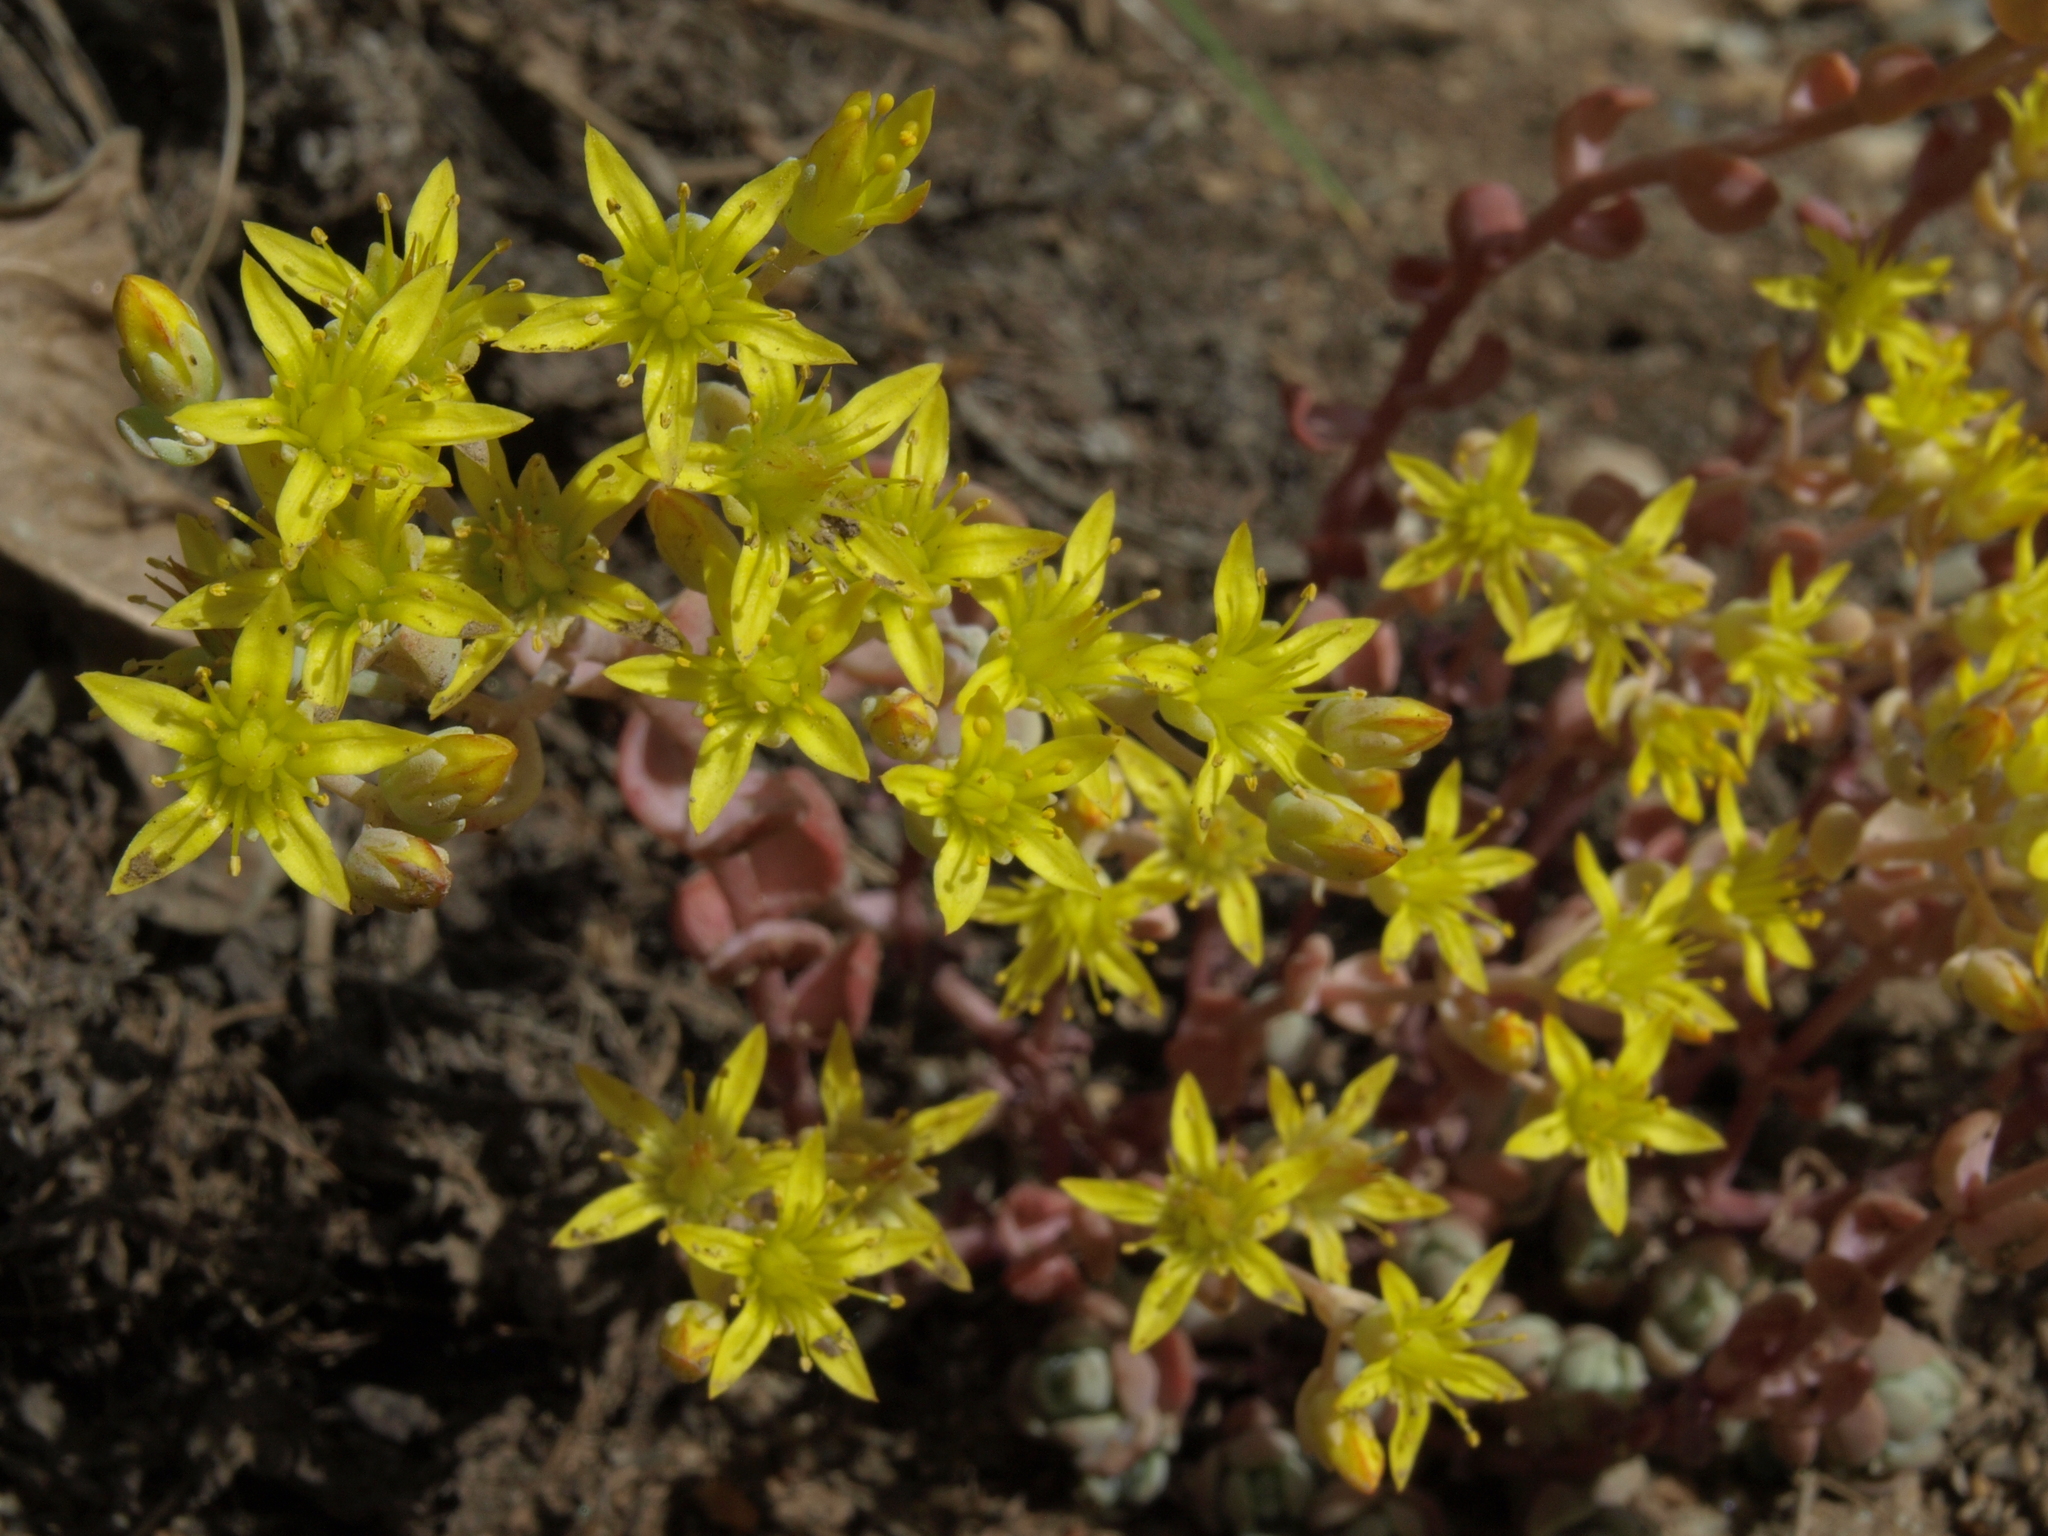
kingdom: Plantae
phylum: Tracheophyta
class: Magnoliopsida
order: Saxifragales
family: Crassulaceae
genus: Sedum
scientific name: Sedum debile
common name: Weak-stem stonecrop
